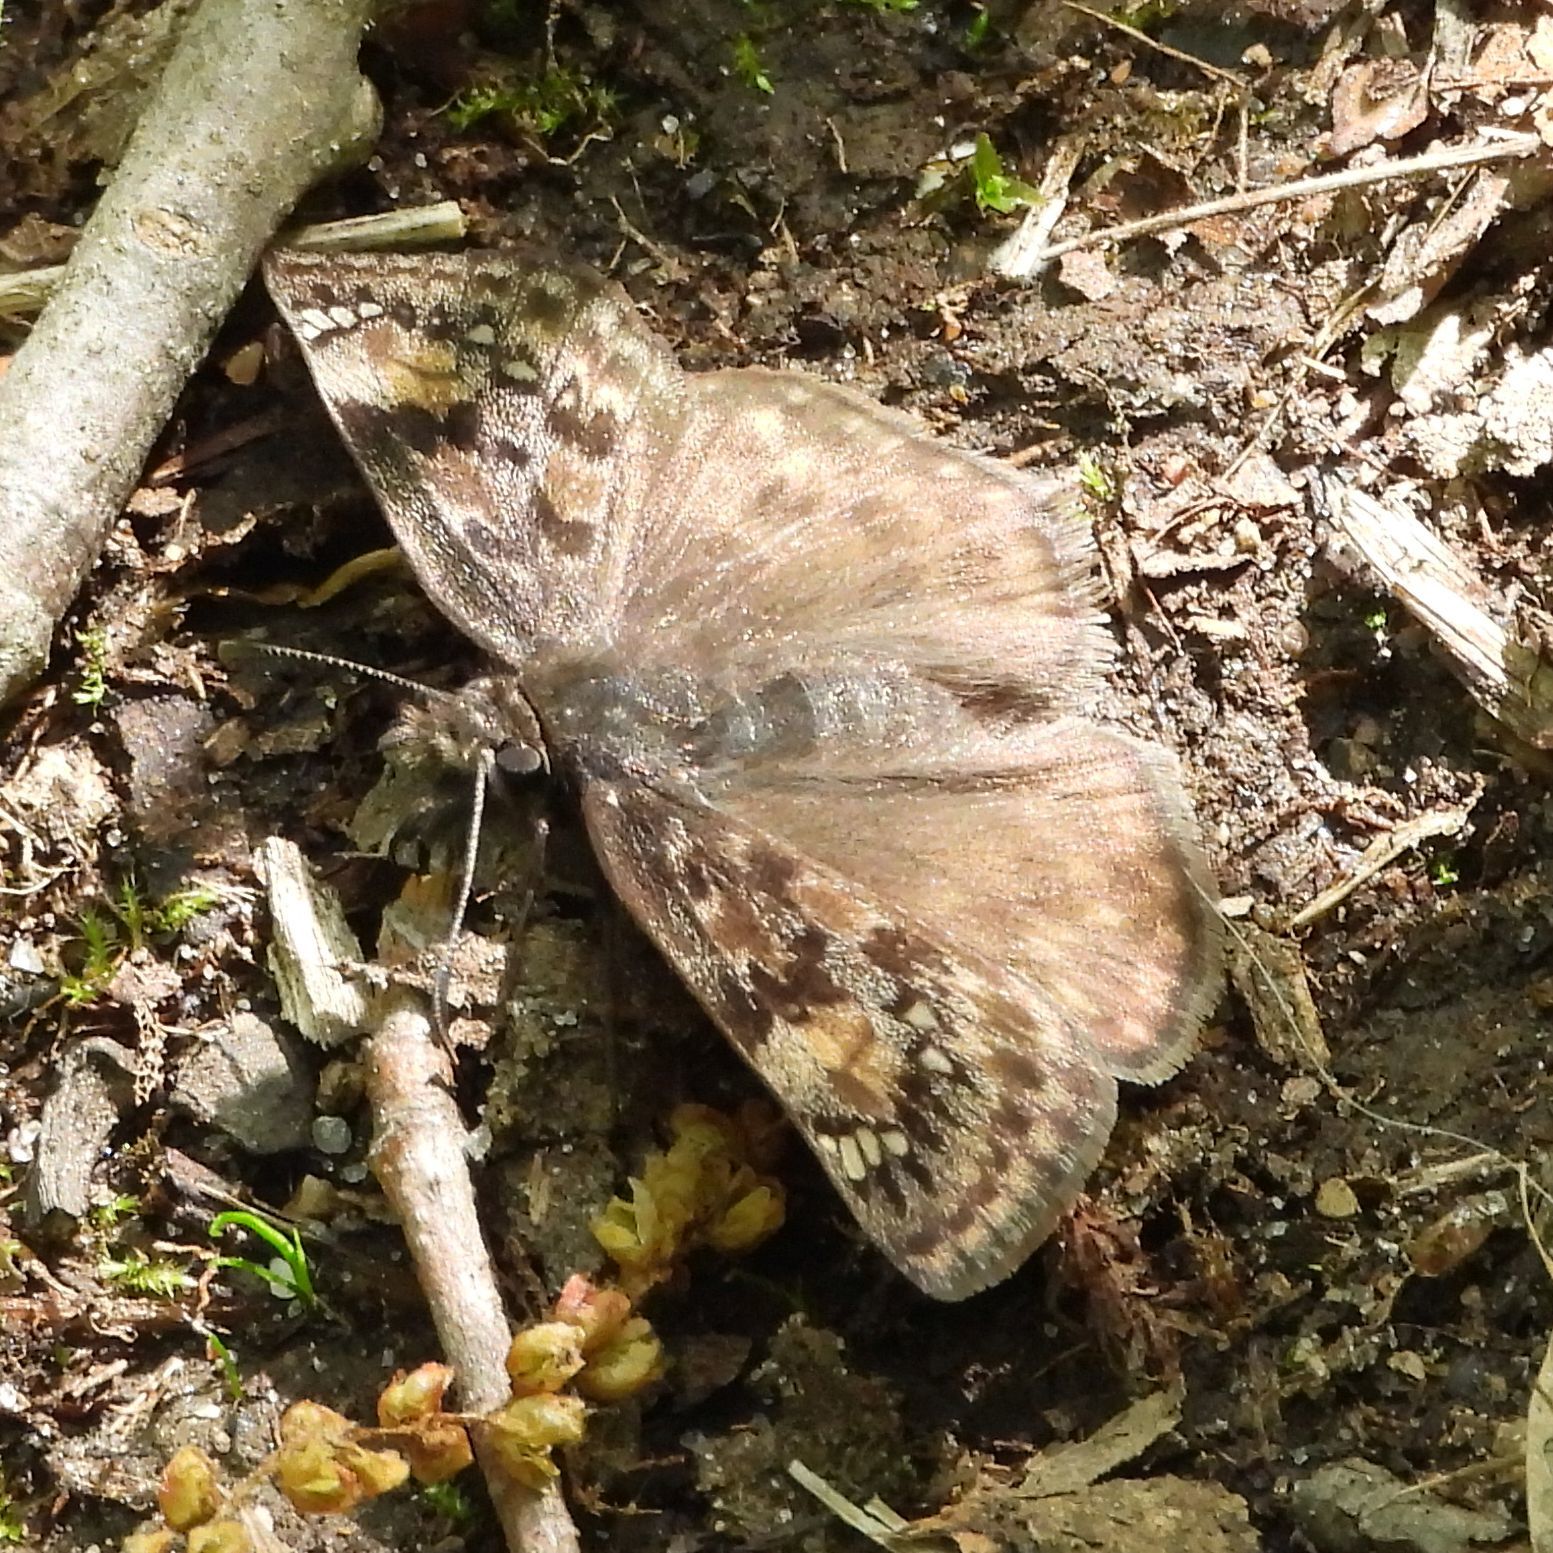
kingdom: Animalia
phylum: Arthropoda
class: Insecta
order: Lepidoptera
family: Hesperiidae
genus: Erynnis
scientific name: Erynnis juvenalis
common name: Juvenal's duskywing
